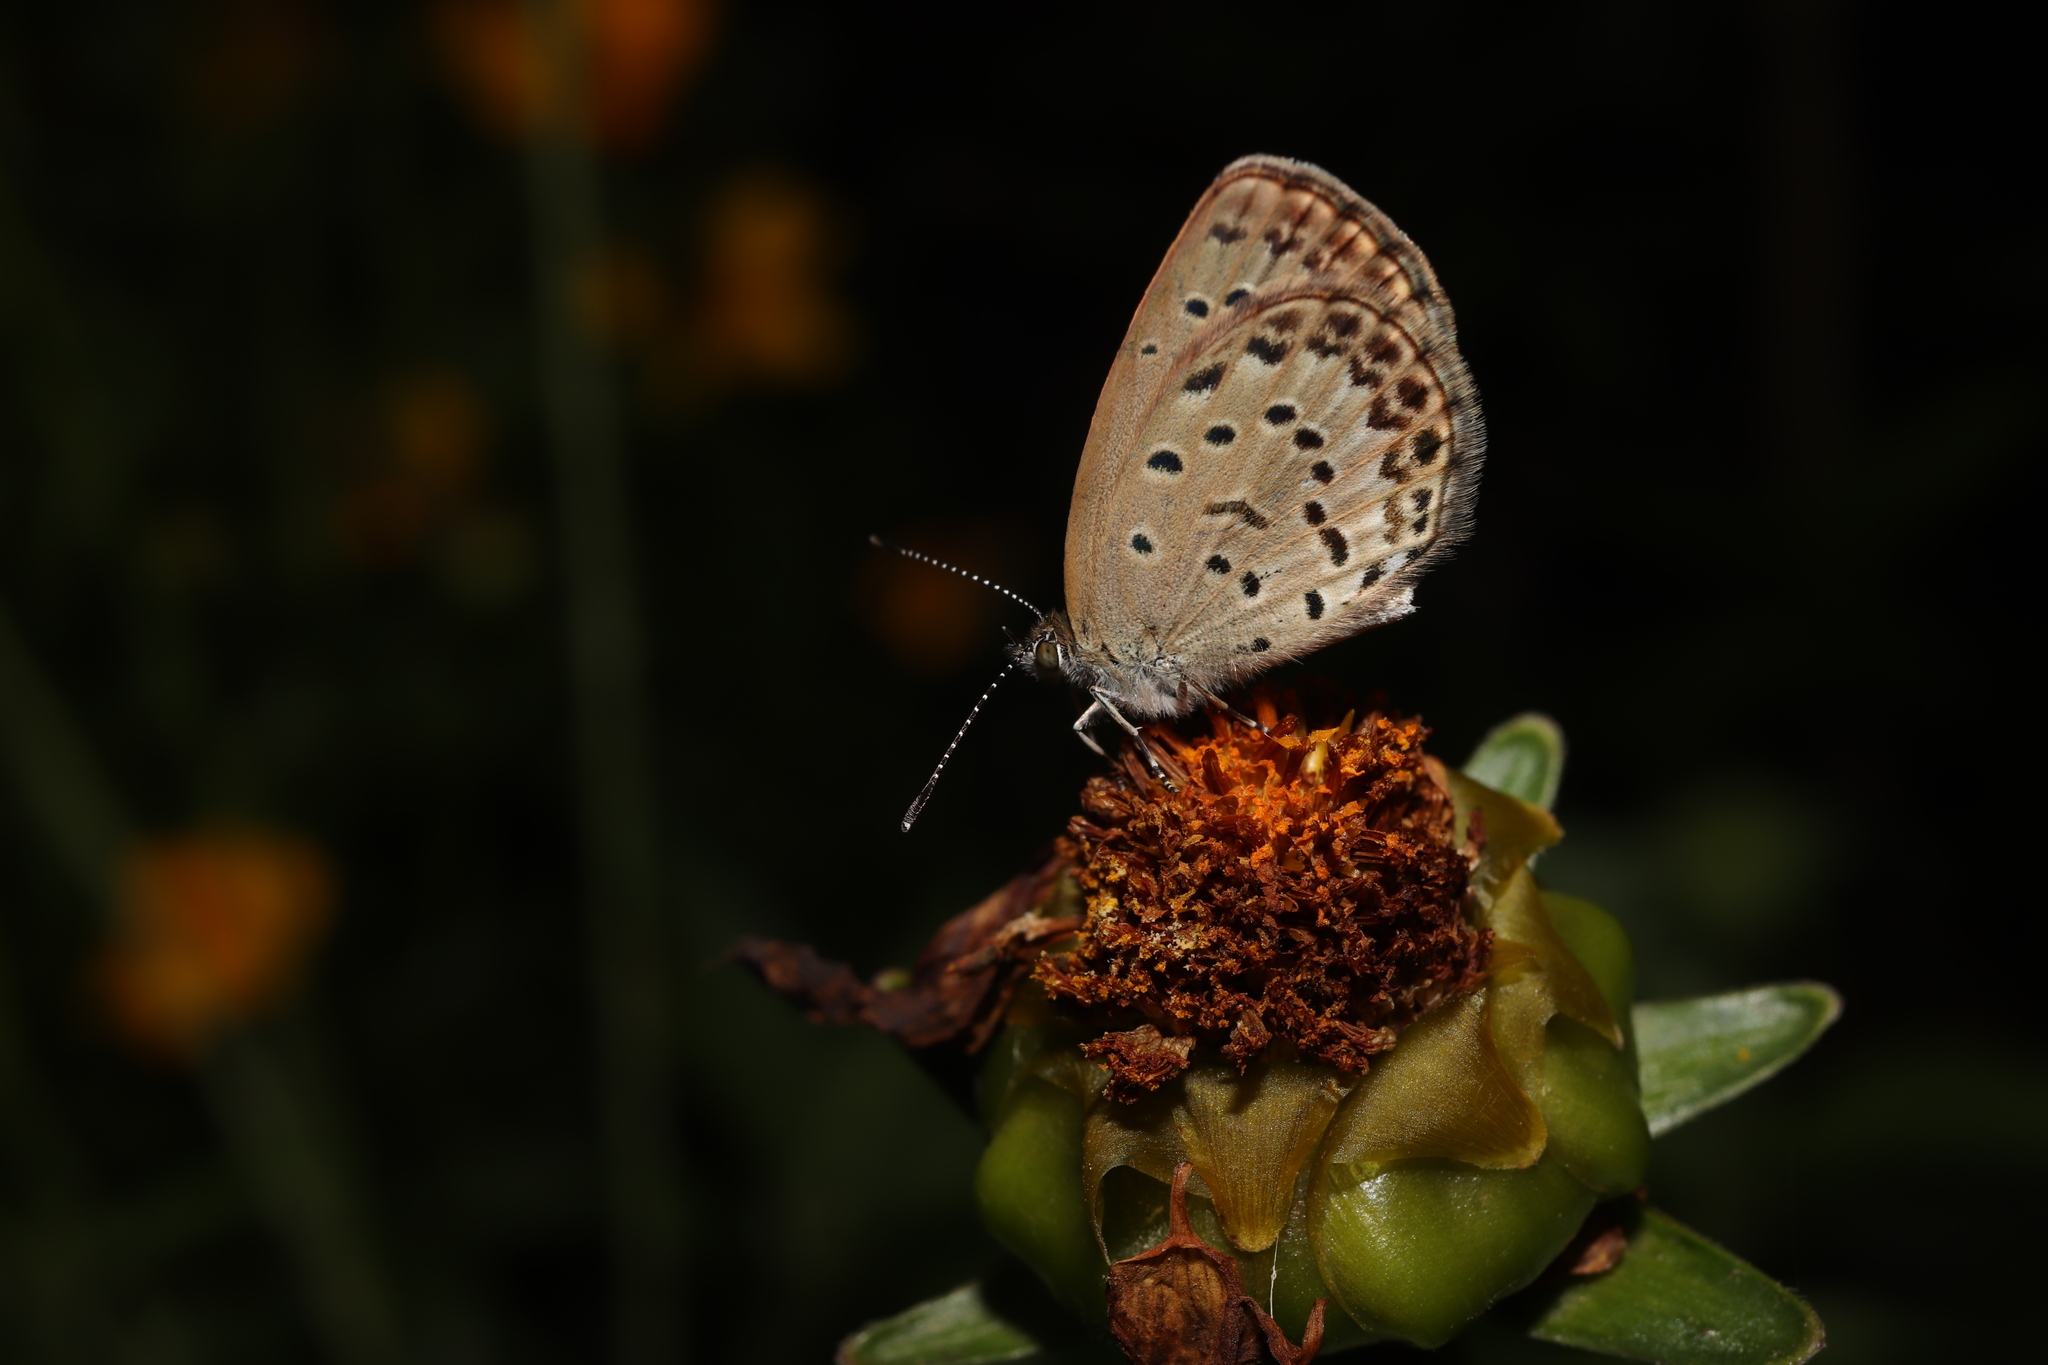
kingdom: Animalia
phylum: Arthropoda
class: Insecta
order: Lepidoptera
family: Lycaenidae
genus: Pseudozizeeria
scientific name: Pseudozizeeria maha
